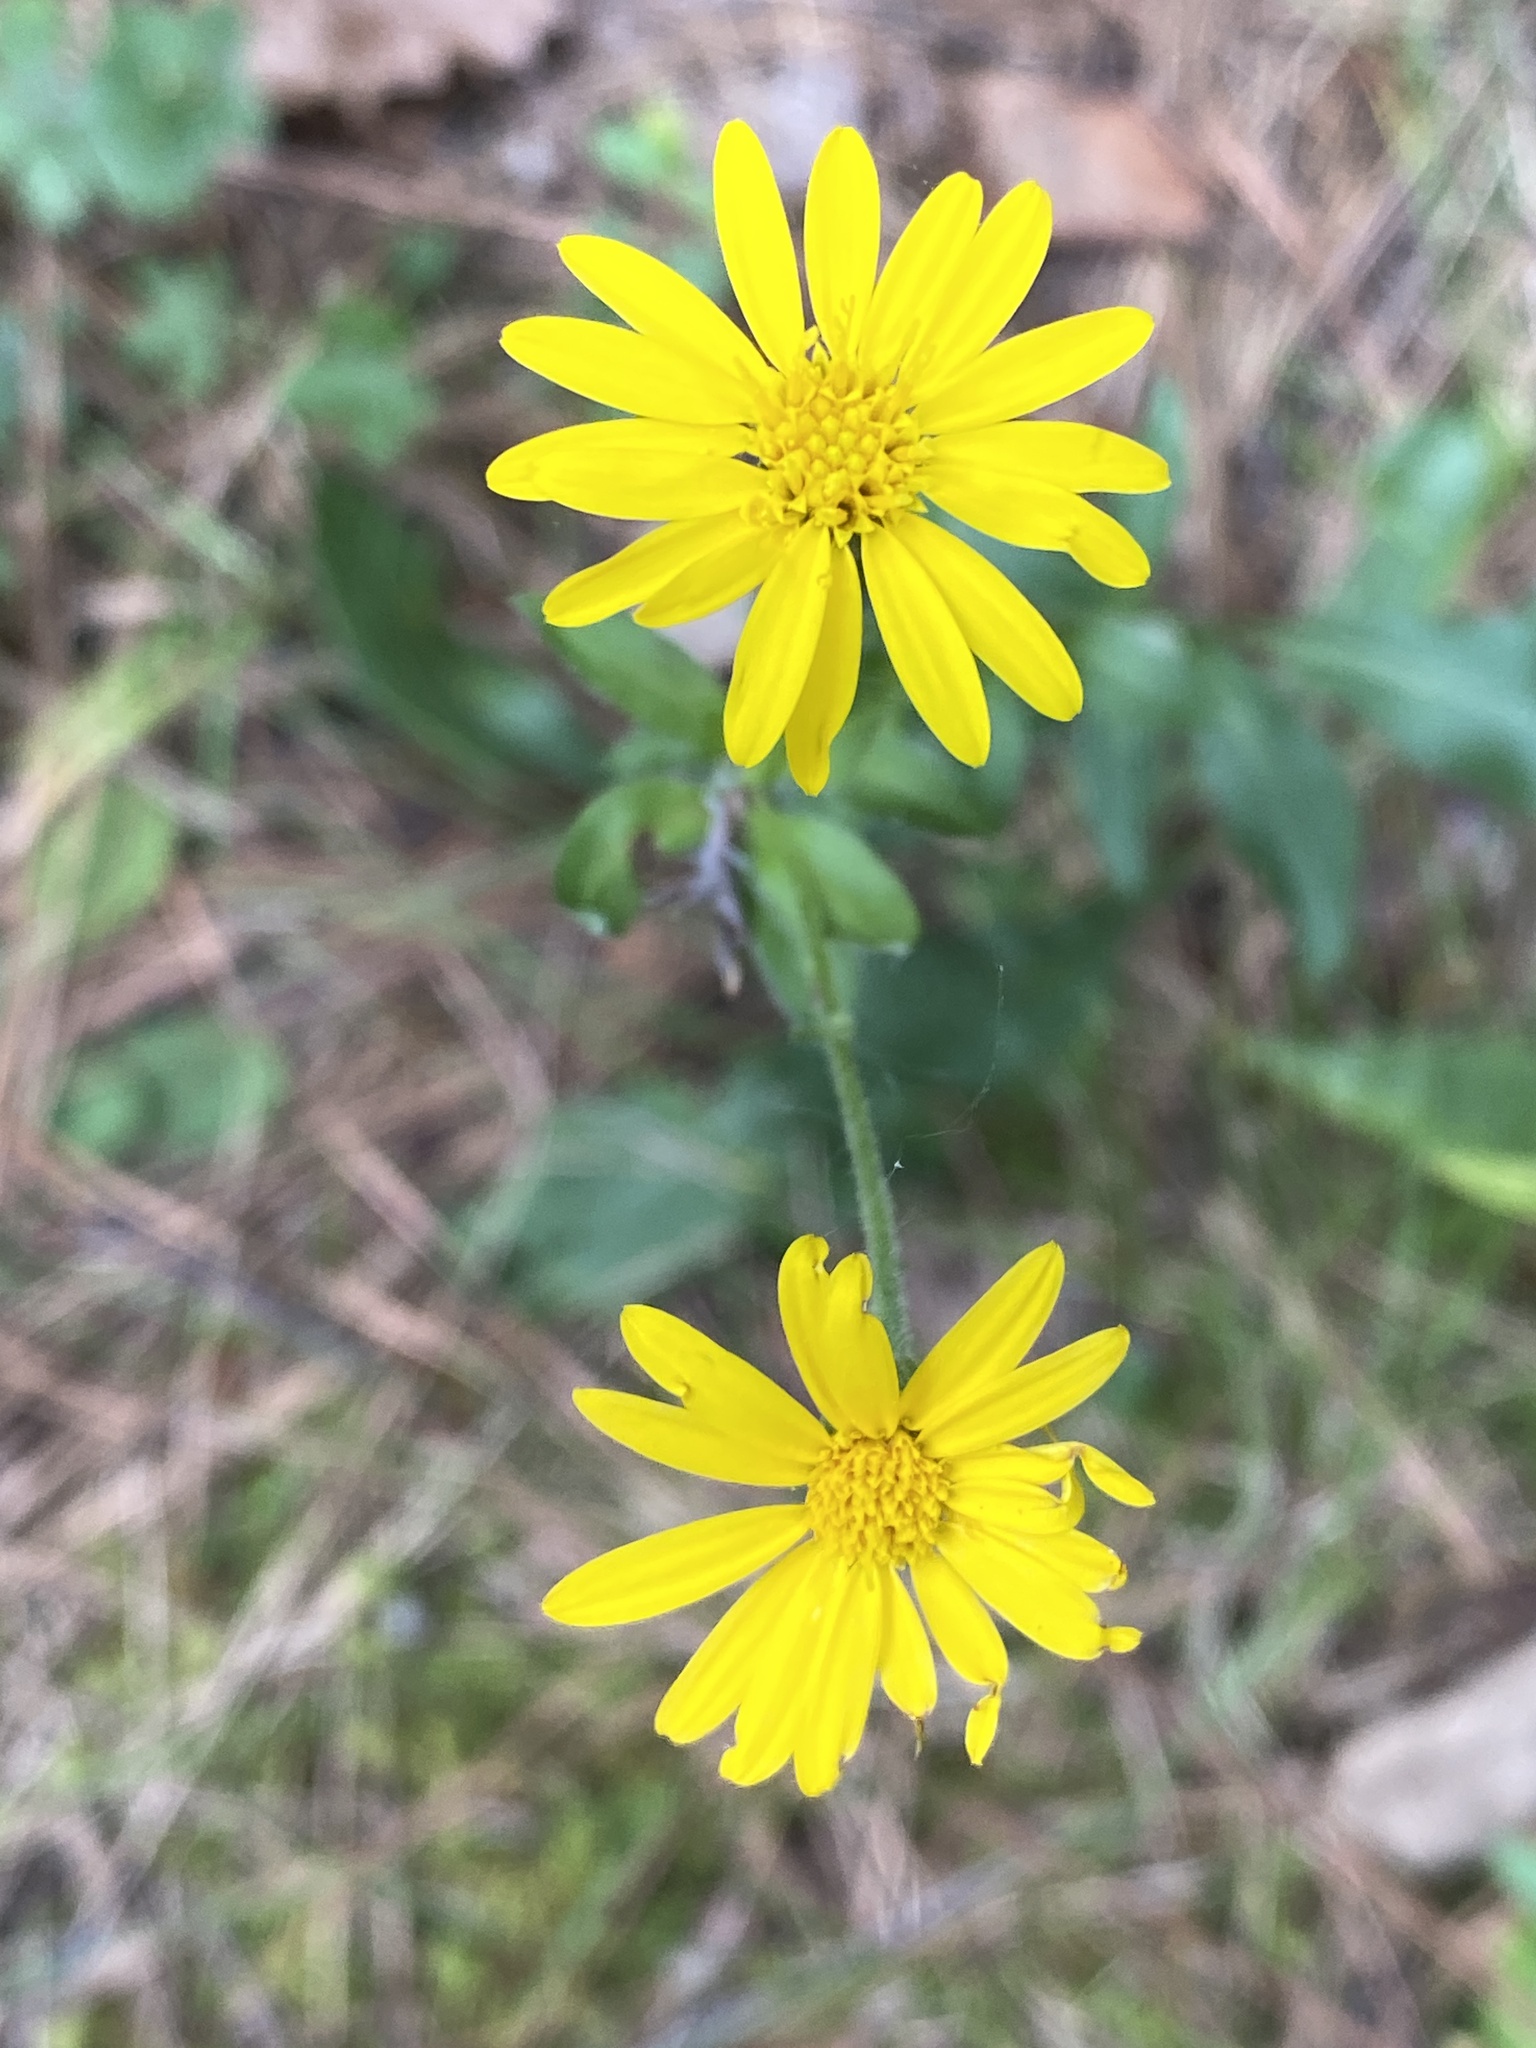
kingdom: Plantae
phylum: Tracheophyta
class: Magnoliopsida
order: Asterales
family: Asteraceae
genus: Chrysopsis
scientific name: Chrysopsis mariana
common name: Maryland golden-aster
